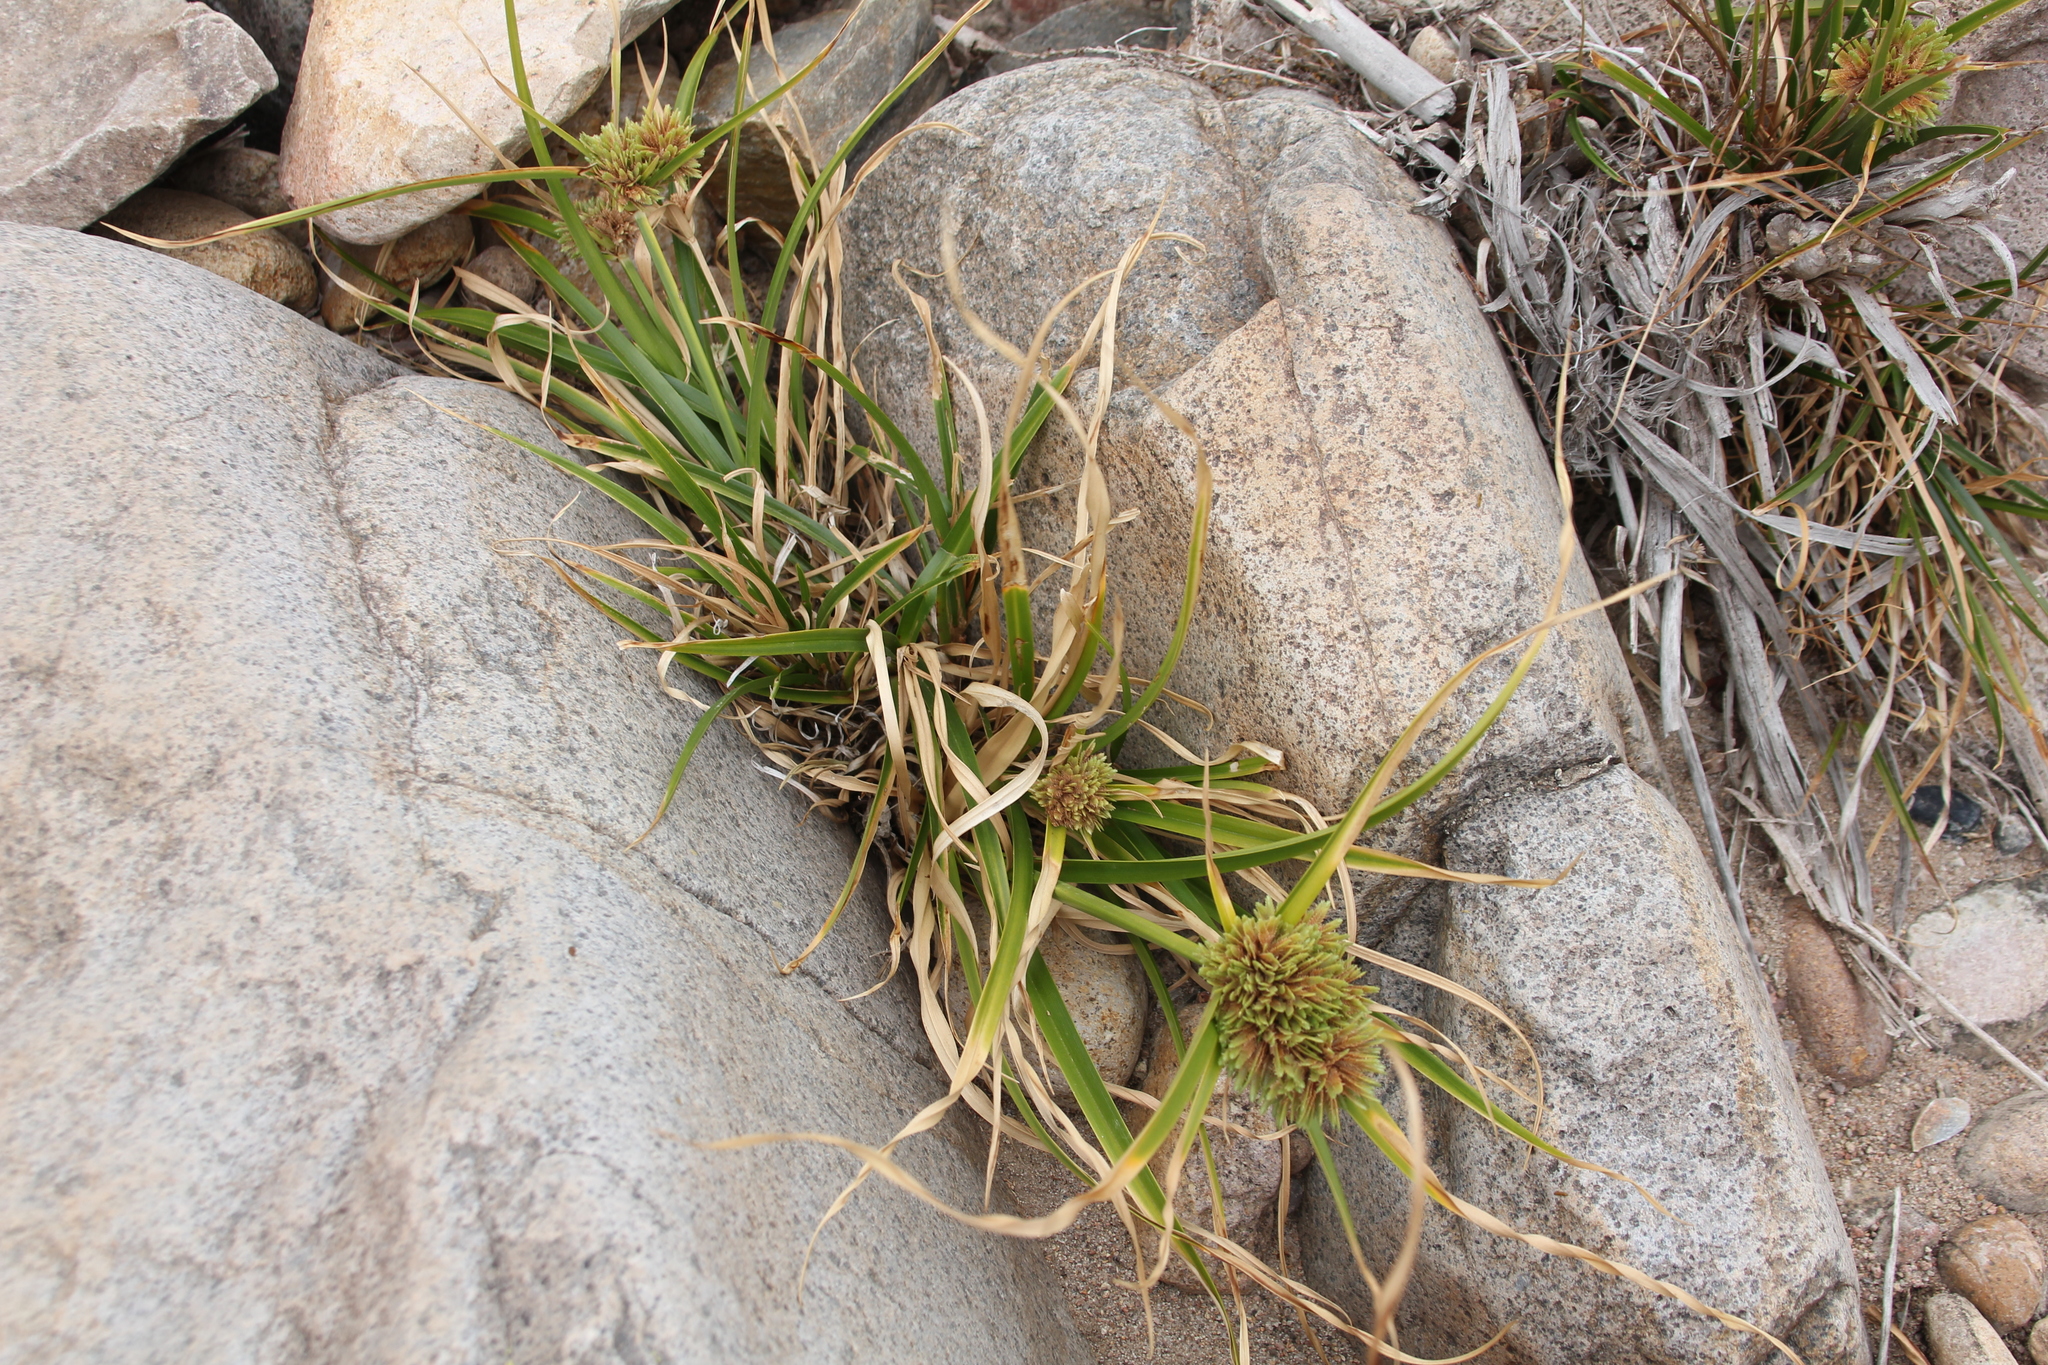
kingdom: Plantae
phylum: Tracheophyta
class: Liliopsida
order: Poales
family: Cyperaceae
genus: Cyperus
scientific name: Cyperus eragrostis
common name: Tall flatsedge
